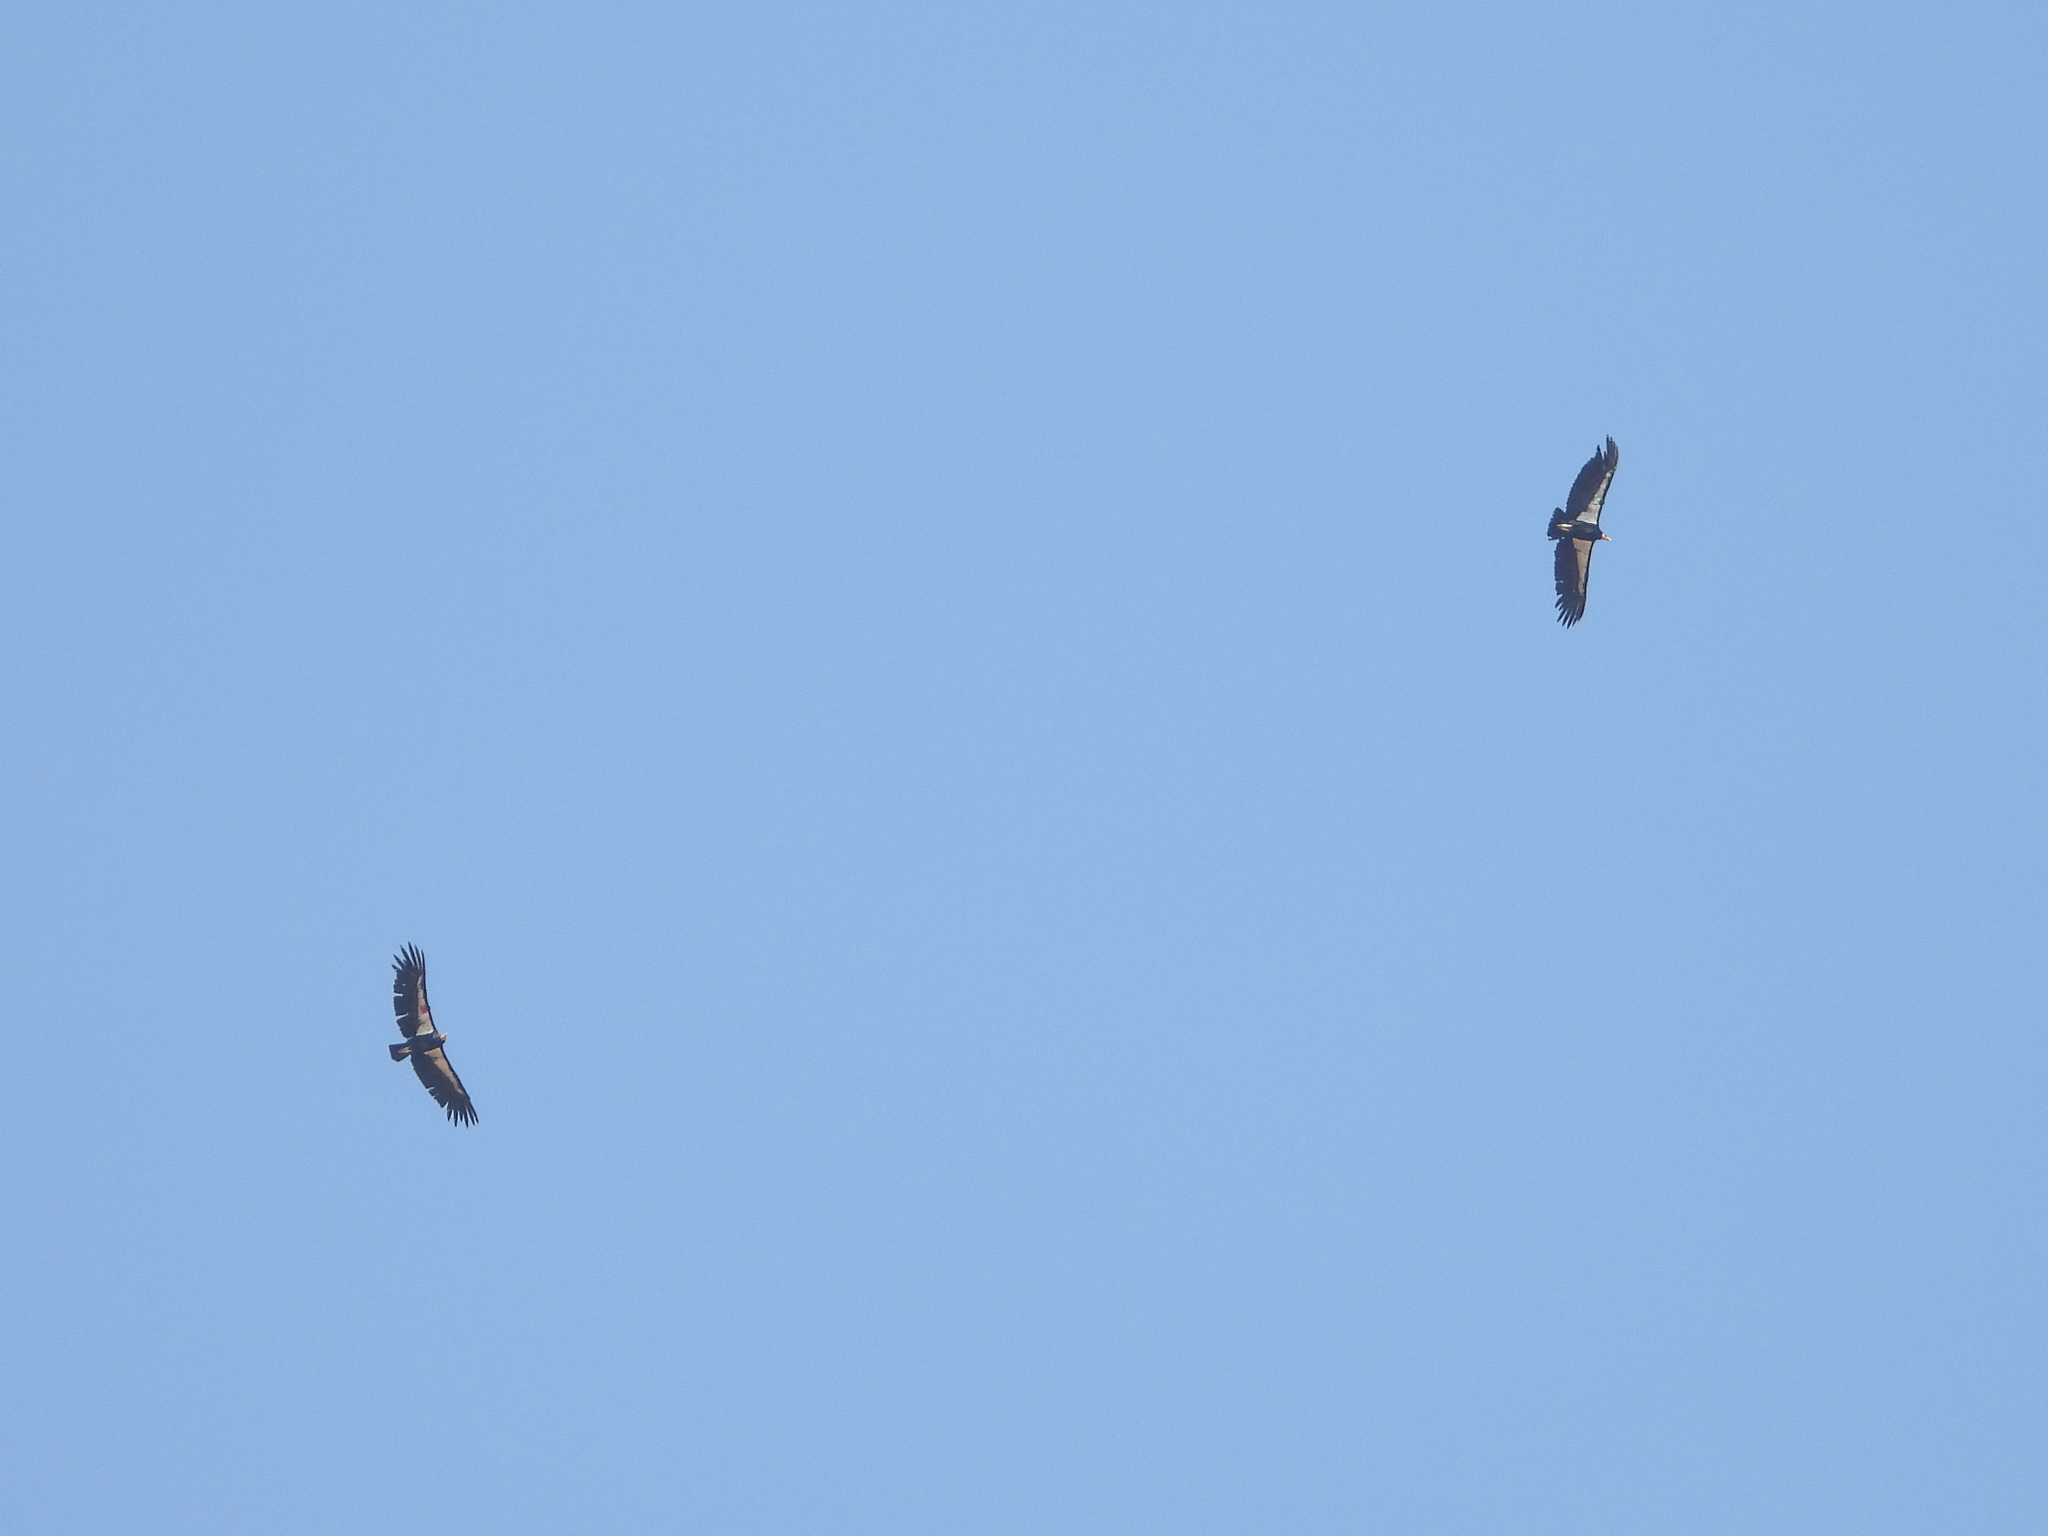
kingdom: Animalia
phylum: Chordata
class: Aves
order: Accipitriformes
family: Cathartidae
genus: Gymnogyps
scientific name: Gymnogyps californianus
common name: California condor
